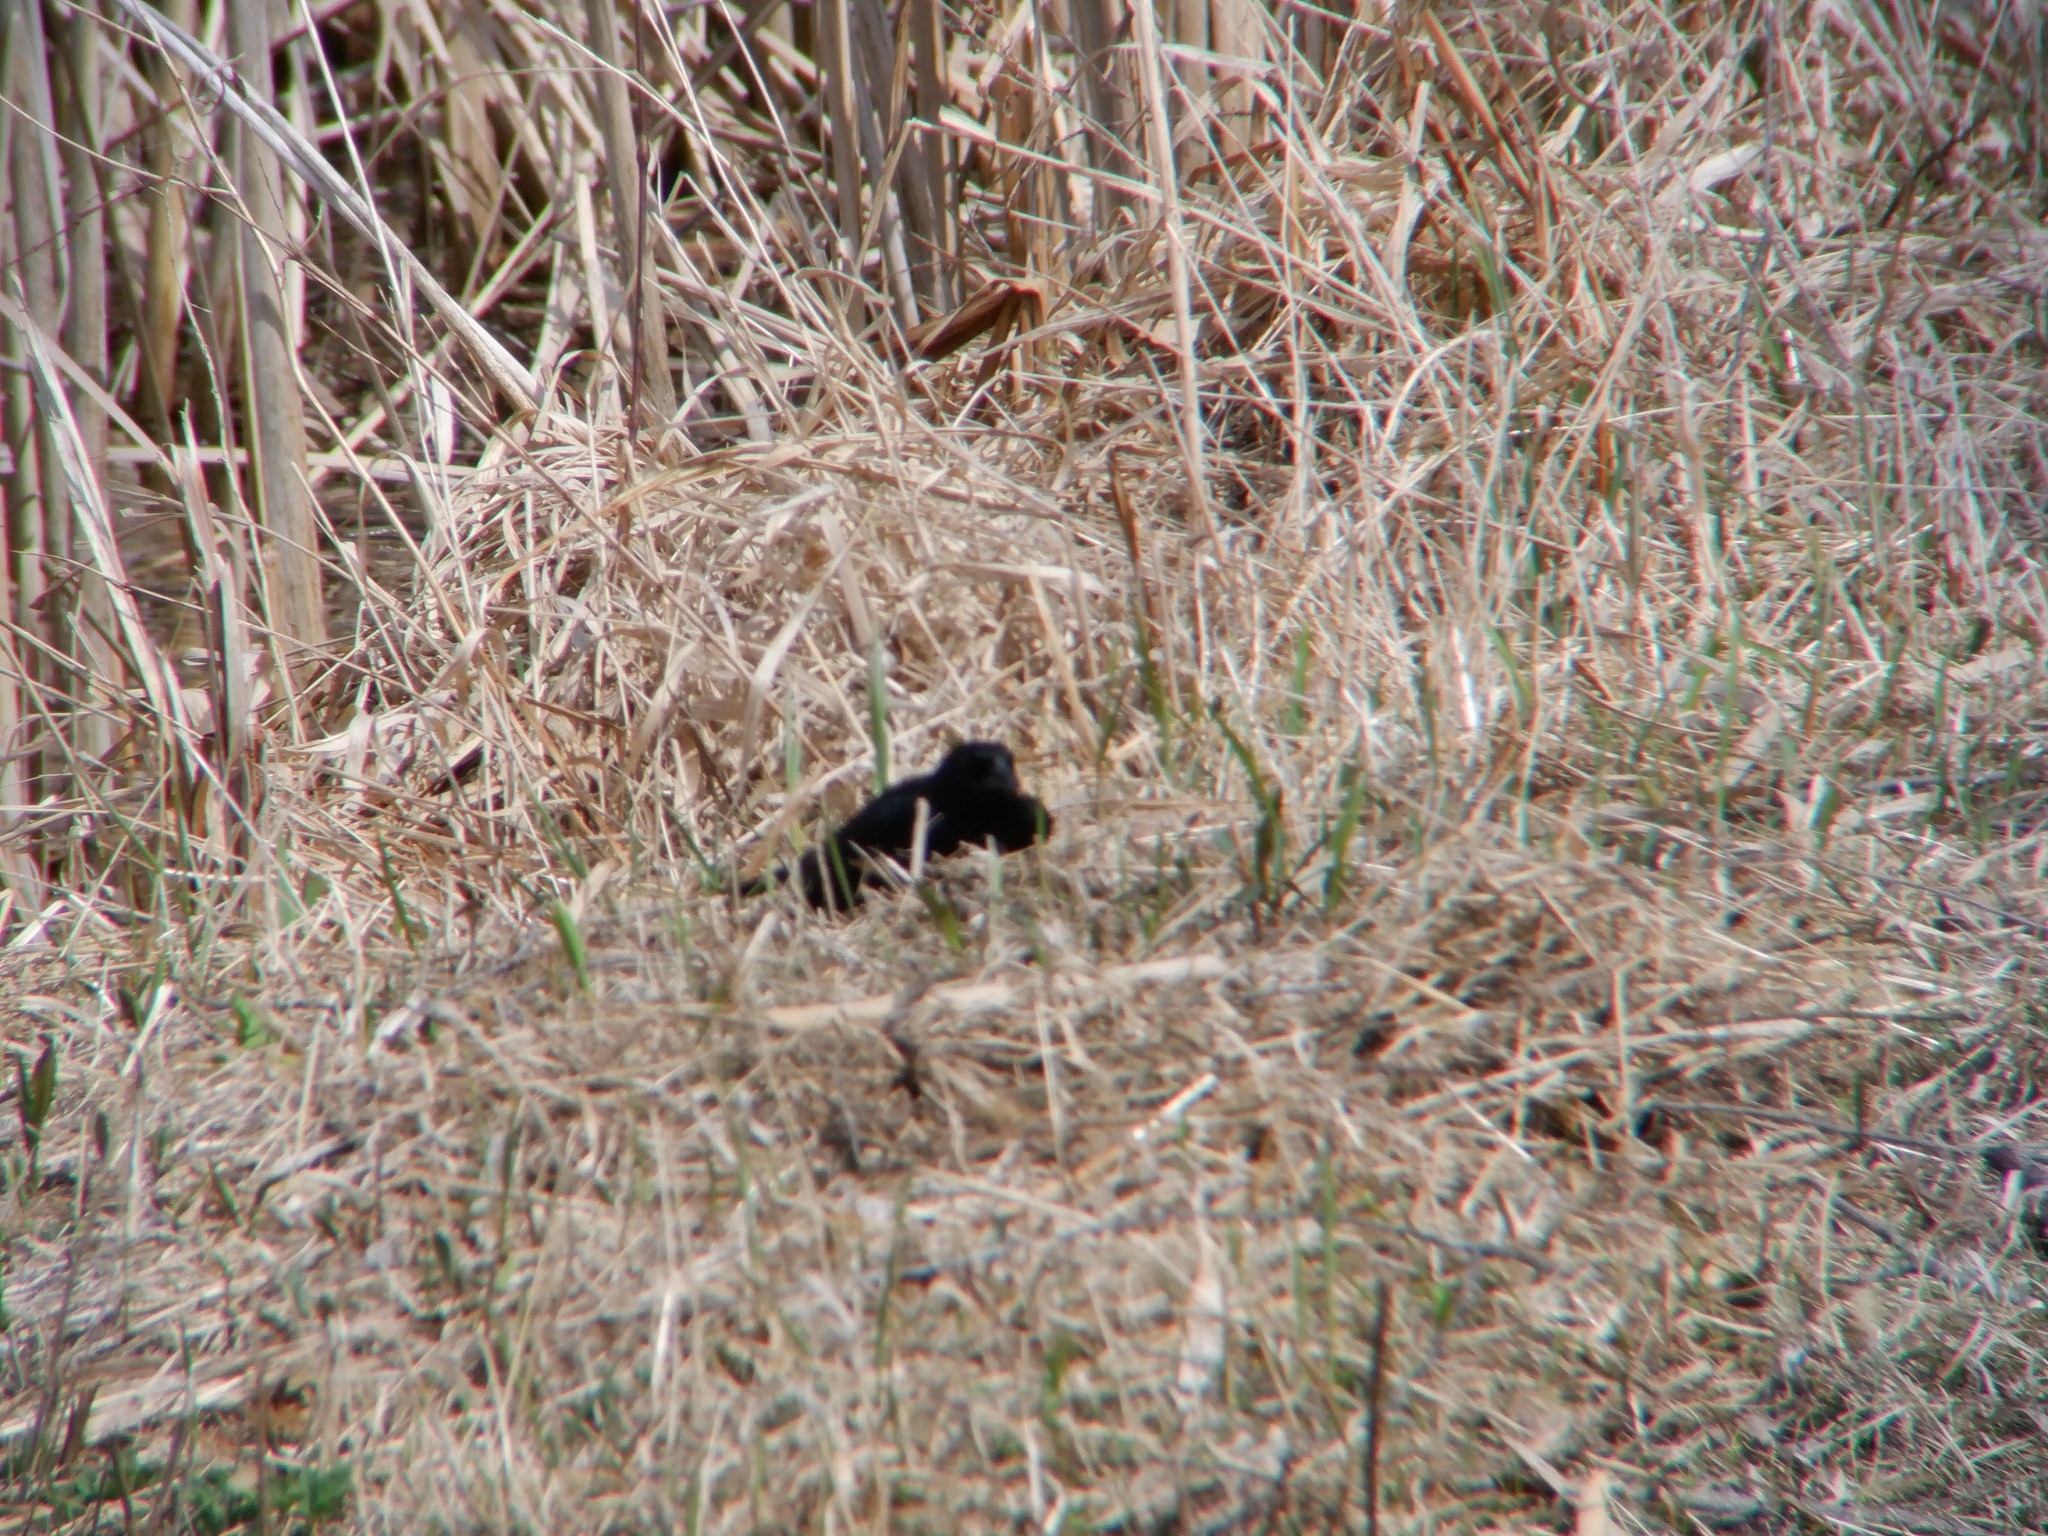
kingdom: Animalia
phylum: Chordata
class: Aves
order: Passeriformes
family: Icteridae
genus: Agelaius
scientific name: Agelaius phoeniceus
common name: Red-winged blackbird
